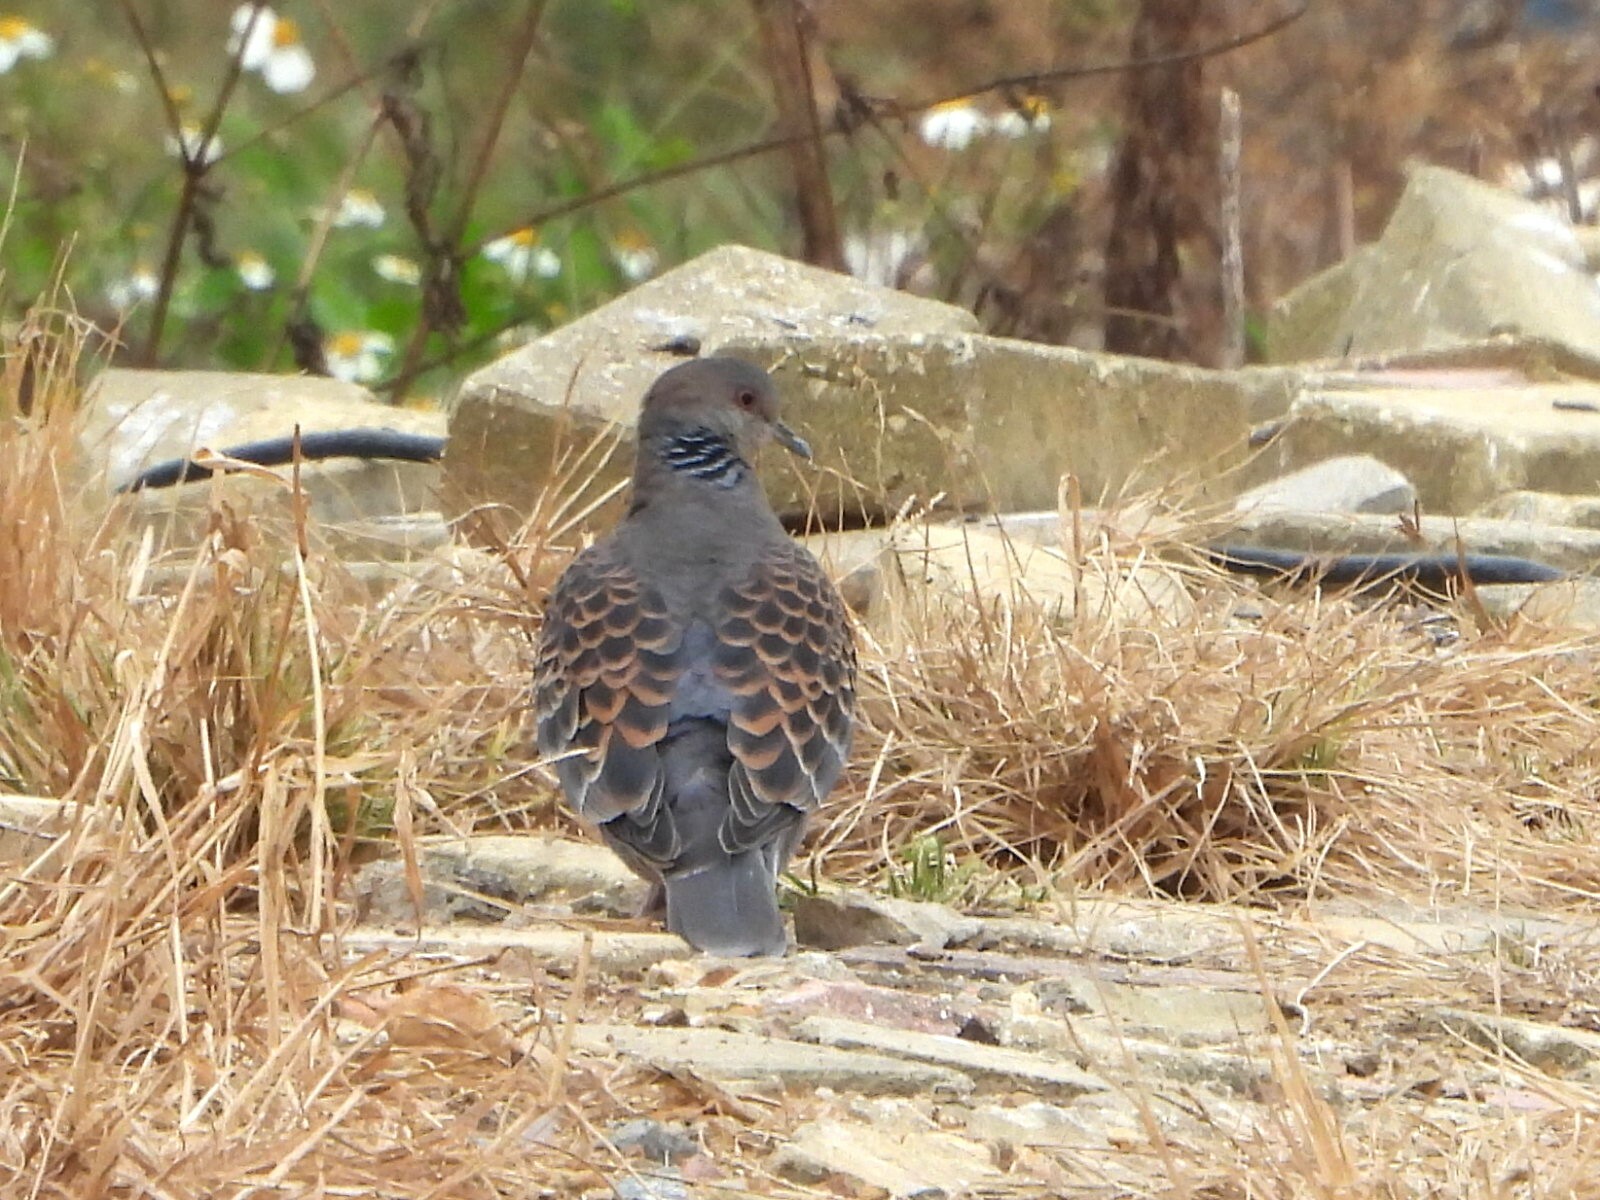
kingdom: Animalia
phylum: Chordata
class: Aves
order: Columbiformes
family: Columbidae
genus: Streptopelia
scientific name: Streptopelia orientalis
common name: Oriental turtle dove
